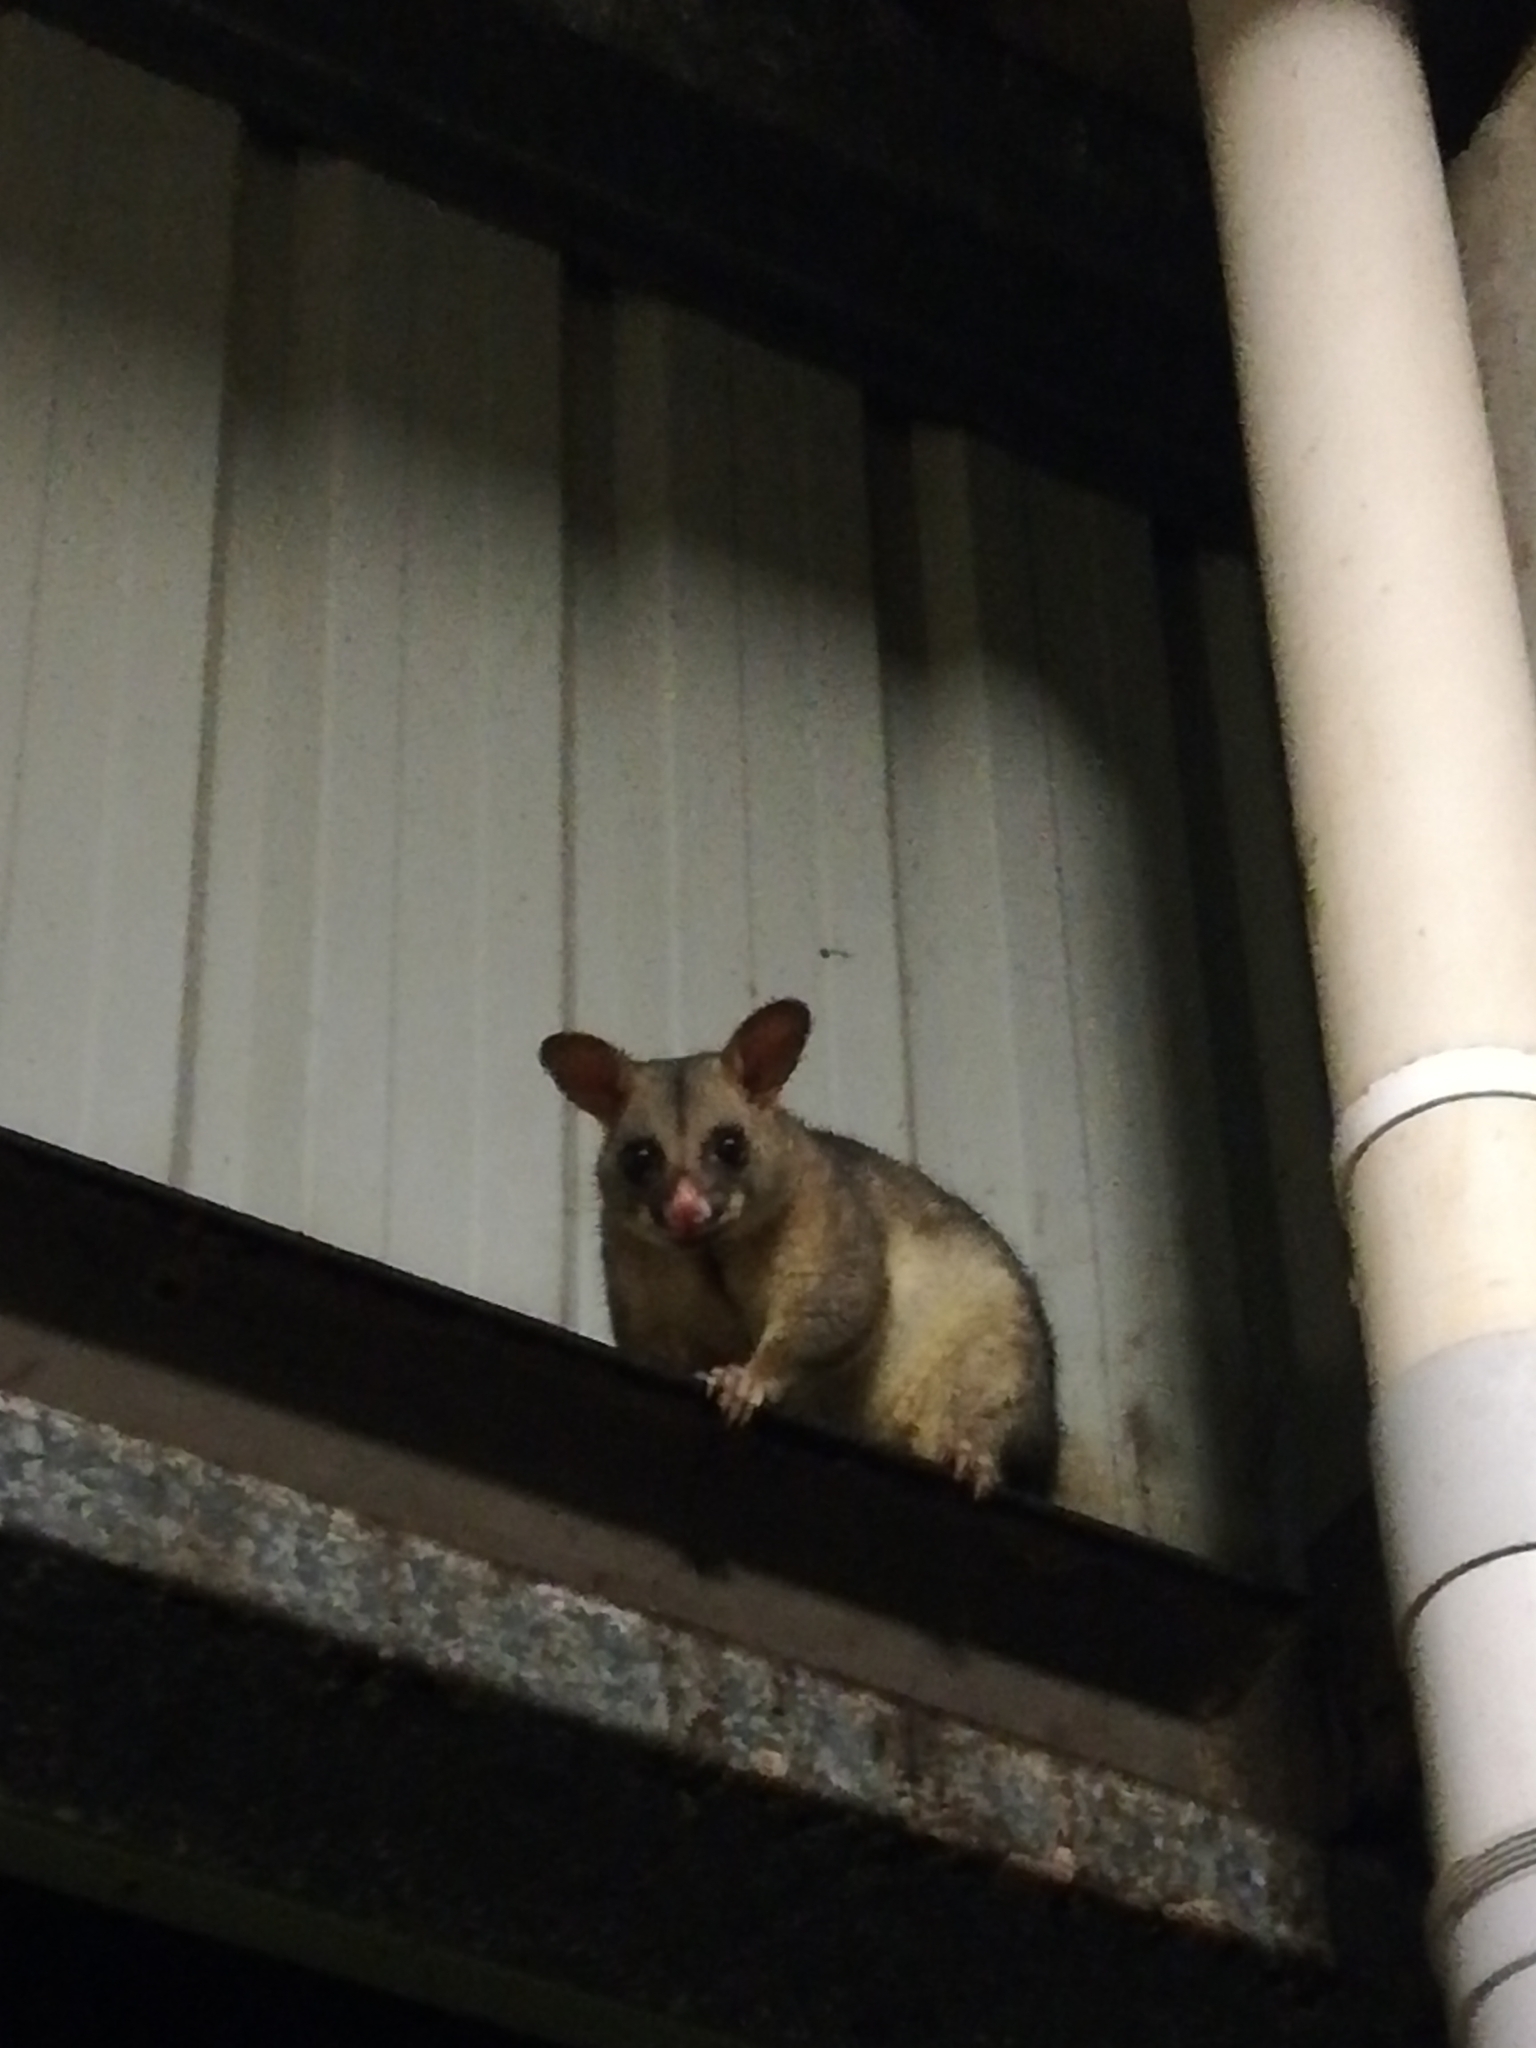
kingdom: Animalia
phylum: Chordata
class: Mammalia
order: Diprotodontia
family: Phalangeridae
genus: Trichosurus
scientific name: Trichosurus vulpecula
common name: Common brushtail
